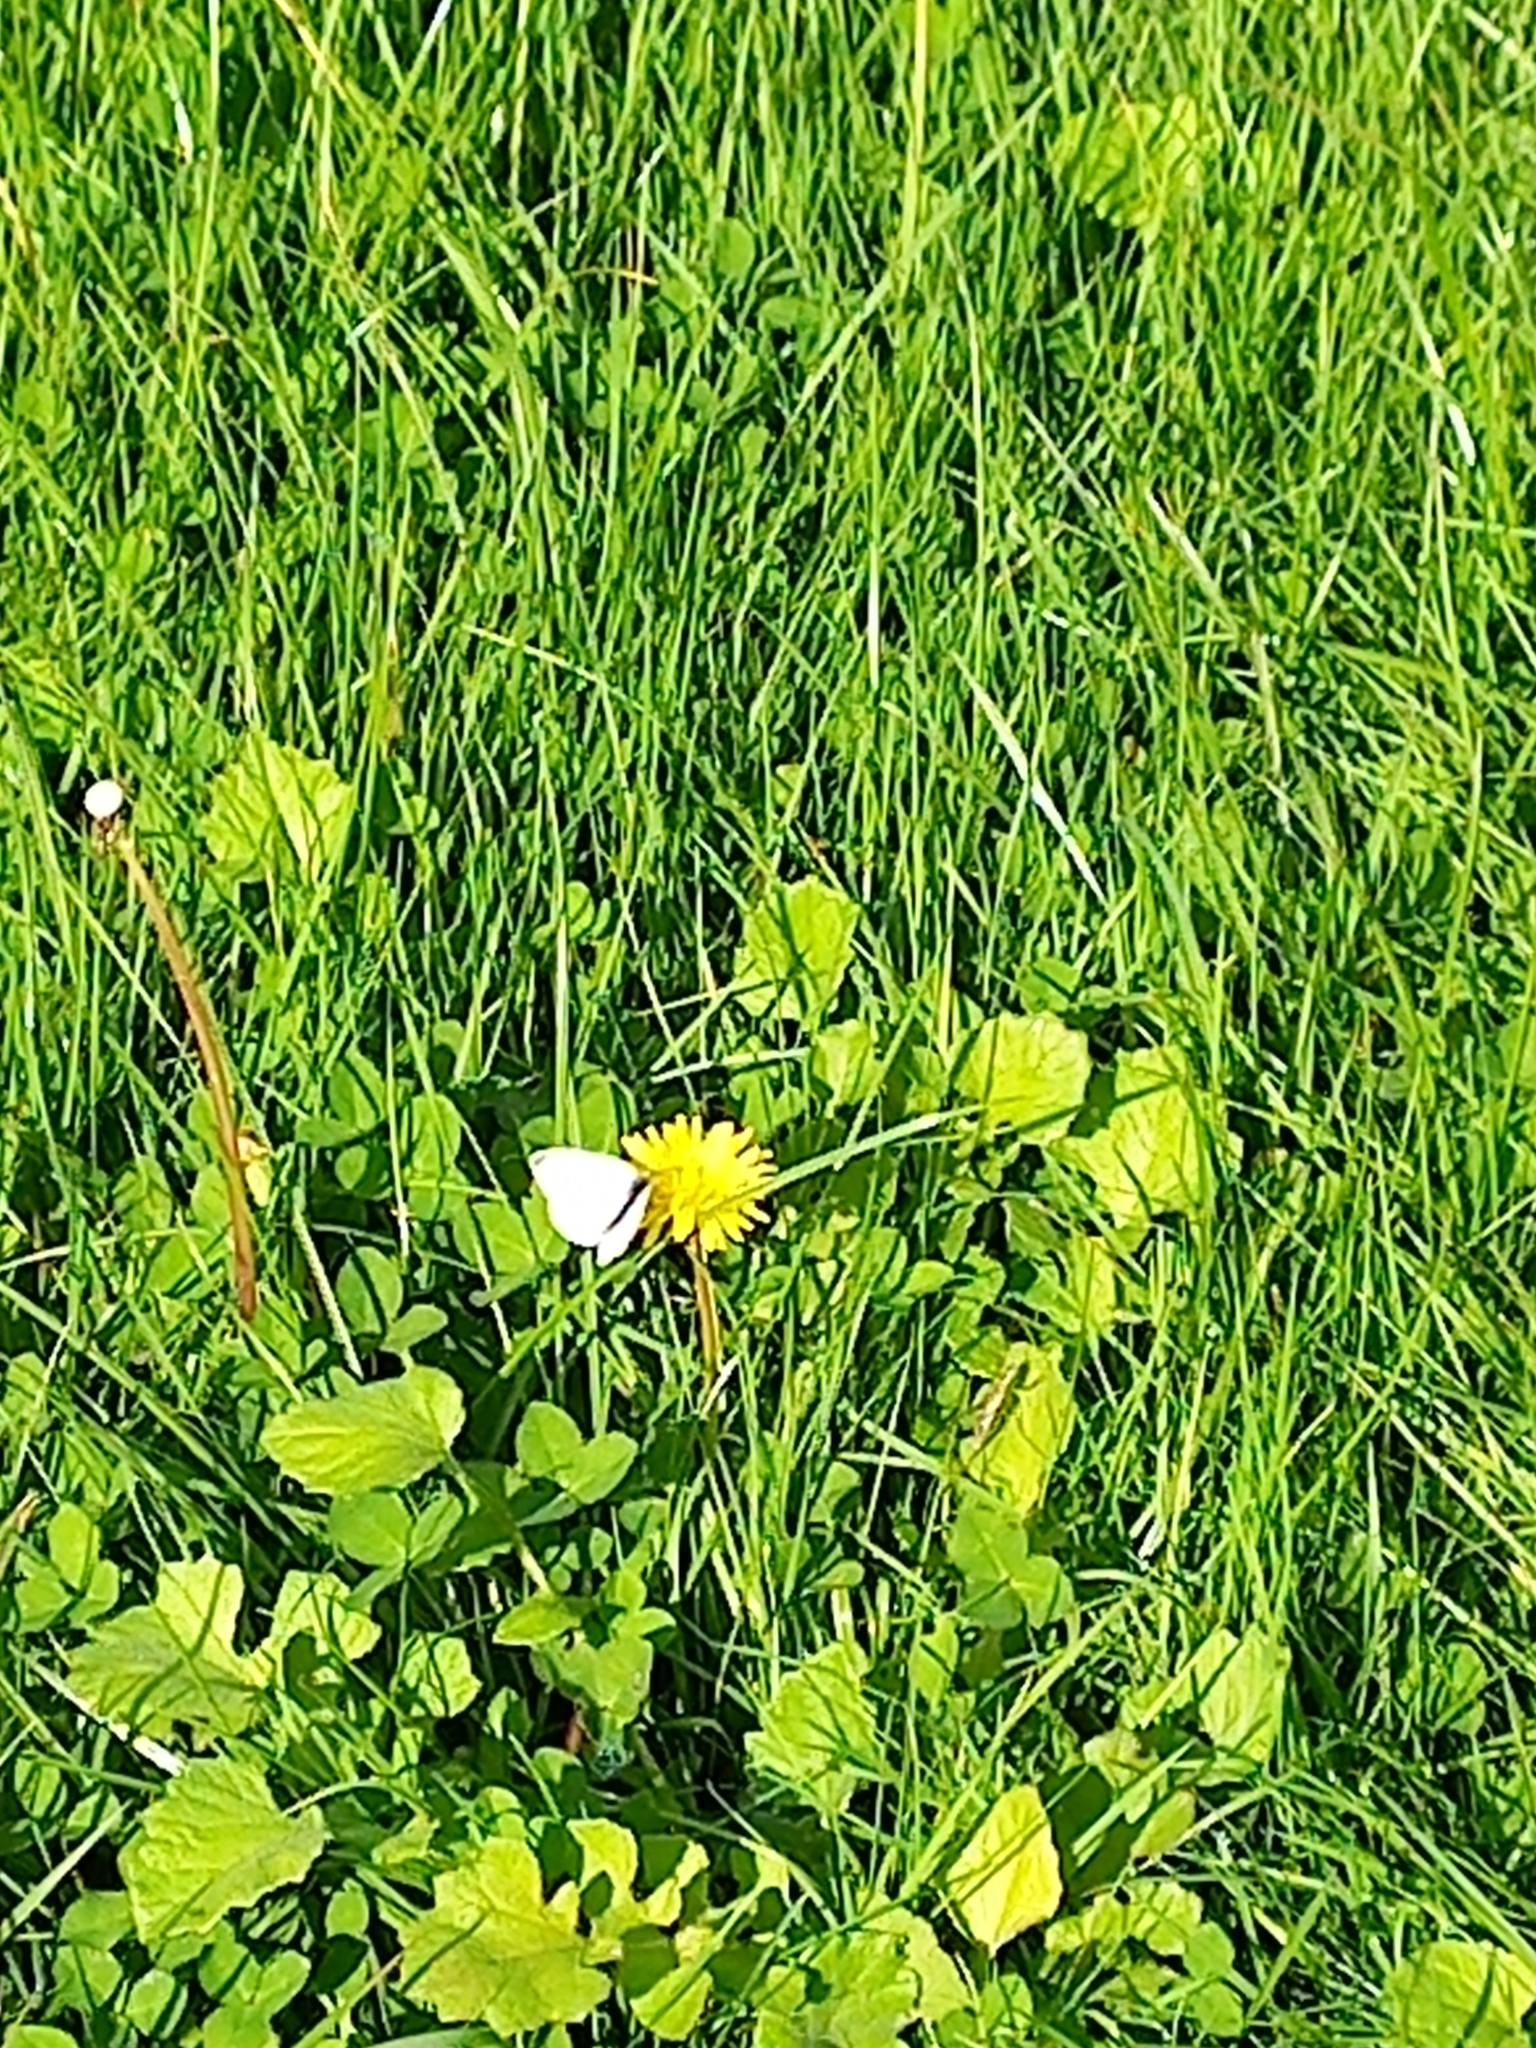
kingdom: Animalia
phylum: Arthropoda
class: Insecta
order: Lepidoptera
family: Pieridae
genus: Pieris
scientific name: Pieris rapae
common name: Small white
